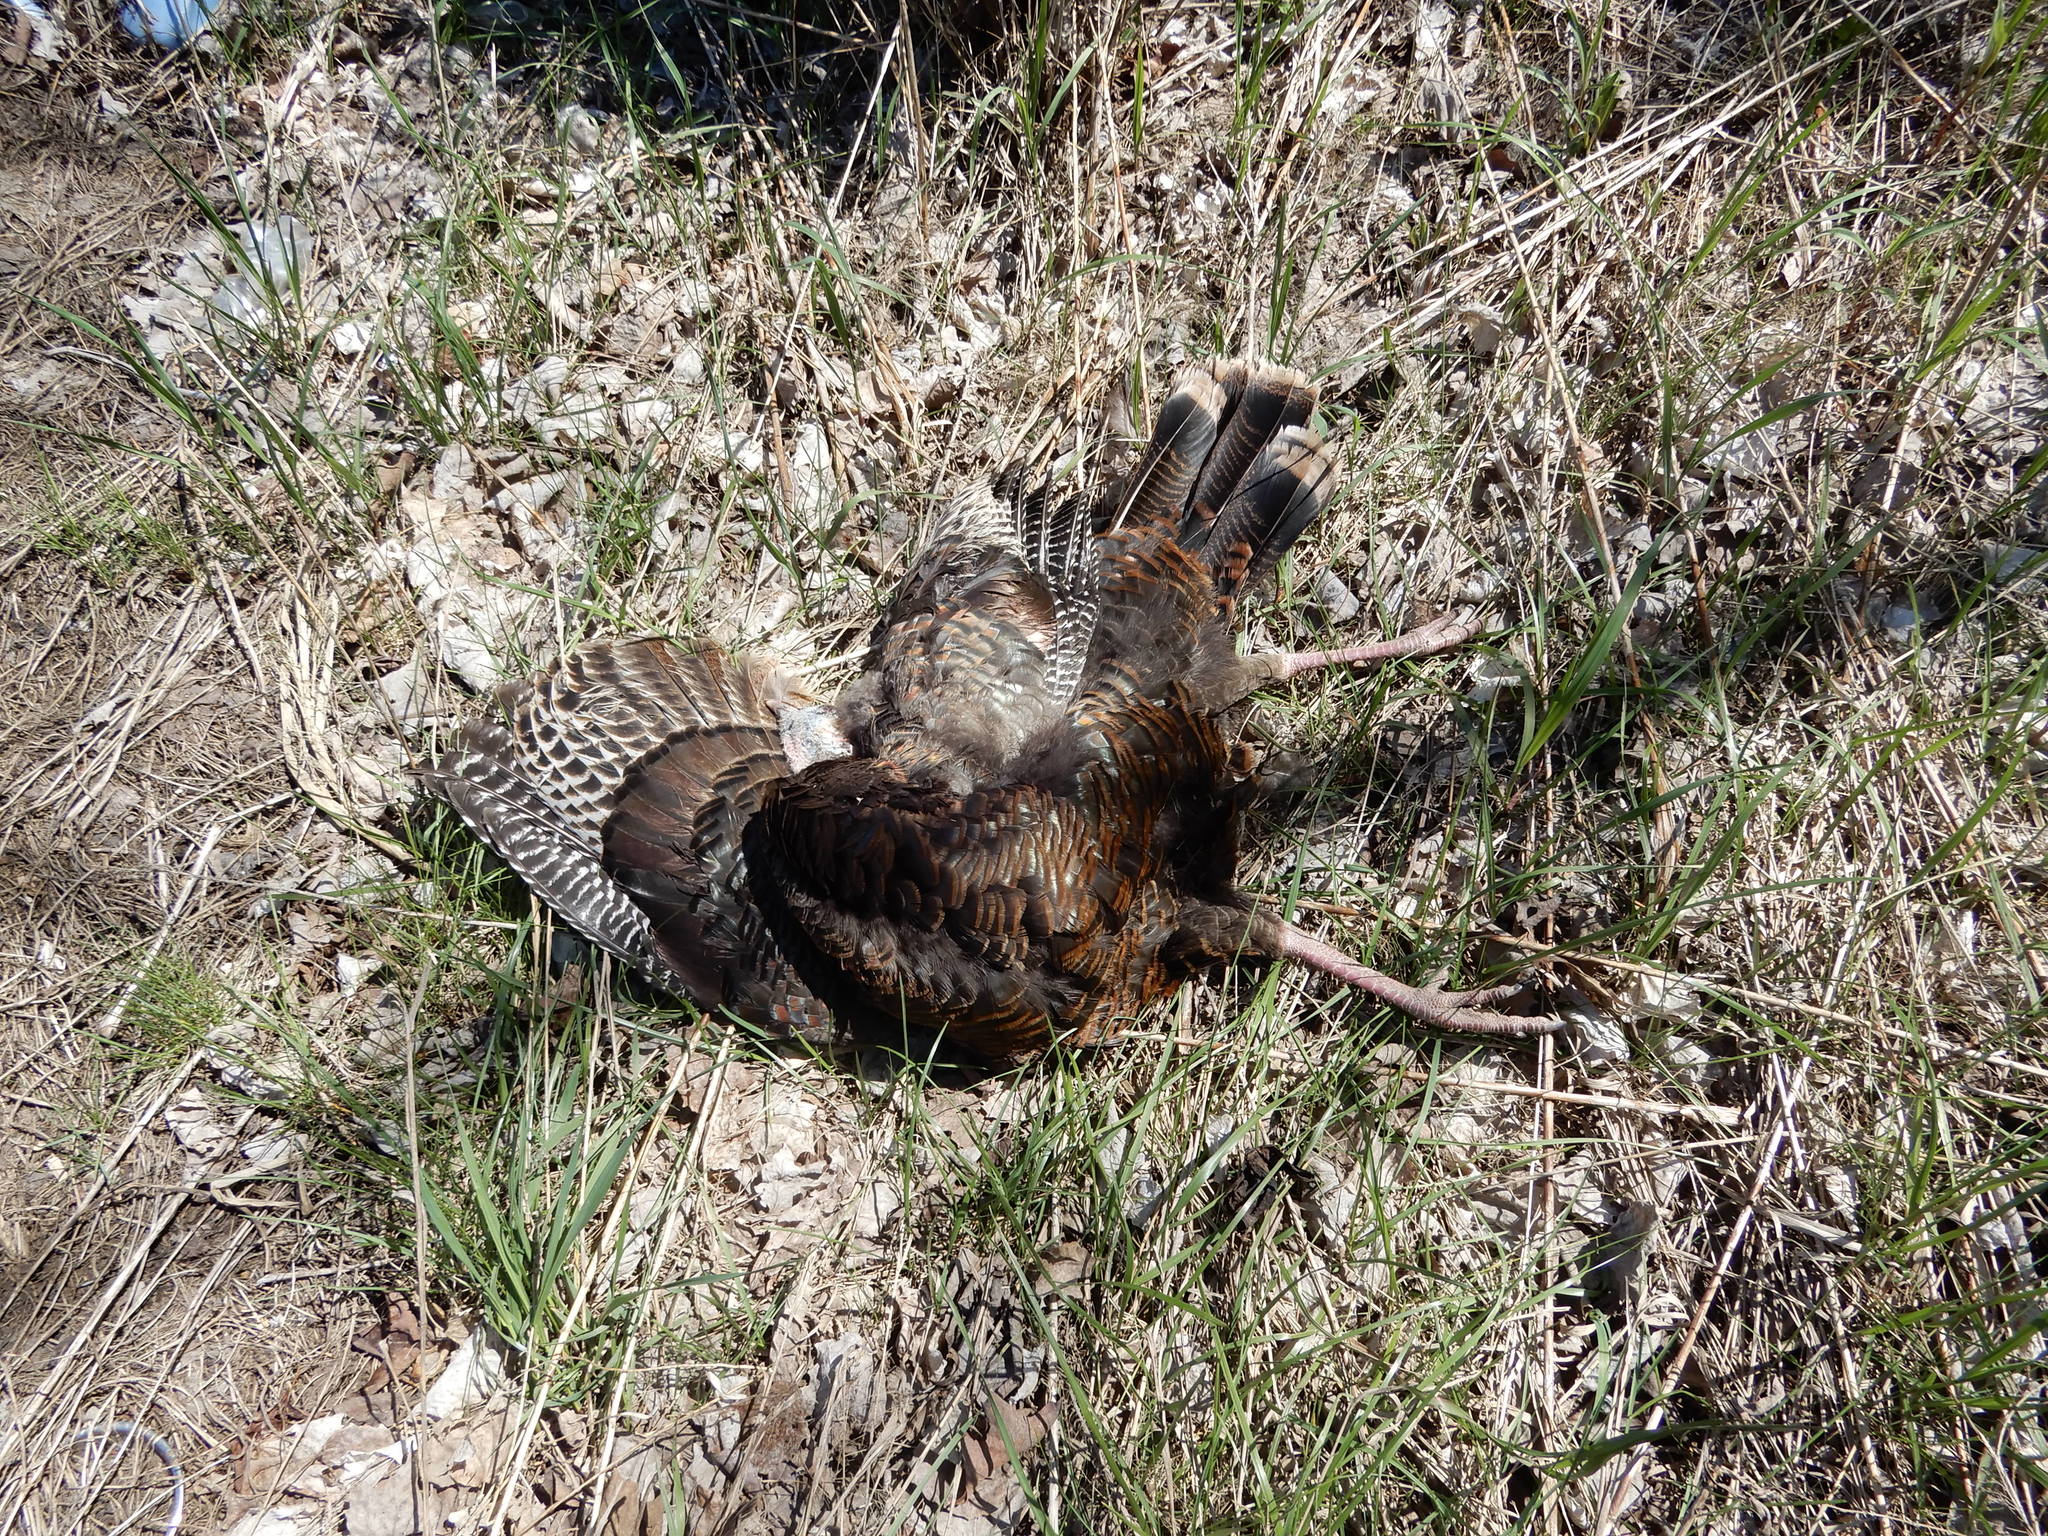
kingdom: Animalia
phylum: Chordata
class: Aves
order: Galliformes
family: Phasianidae
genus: Meleagris
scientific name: Meleagris gallopavo
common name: Wild turkey
